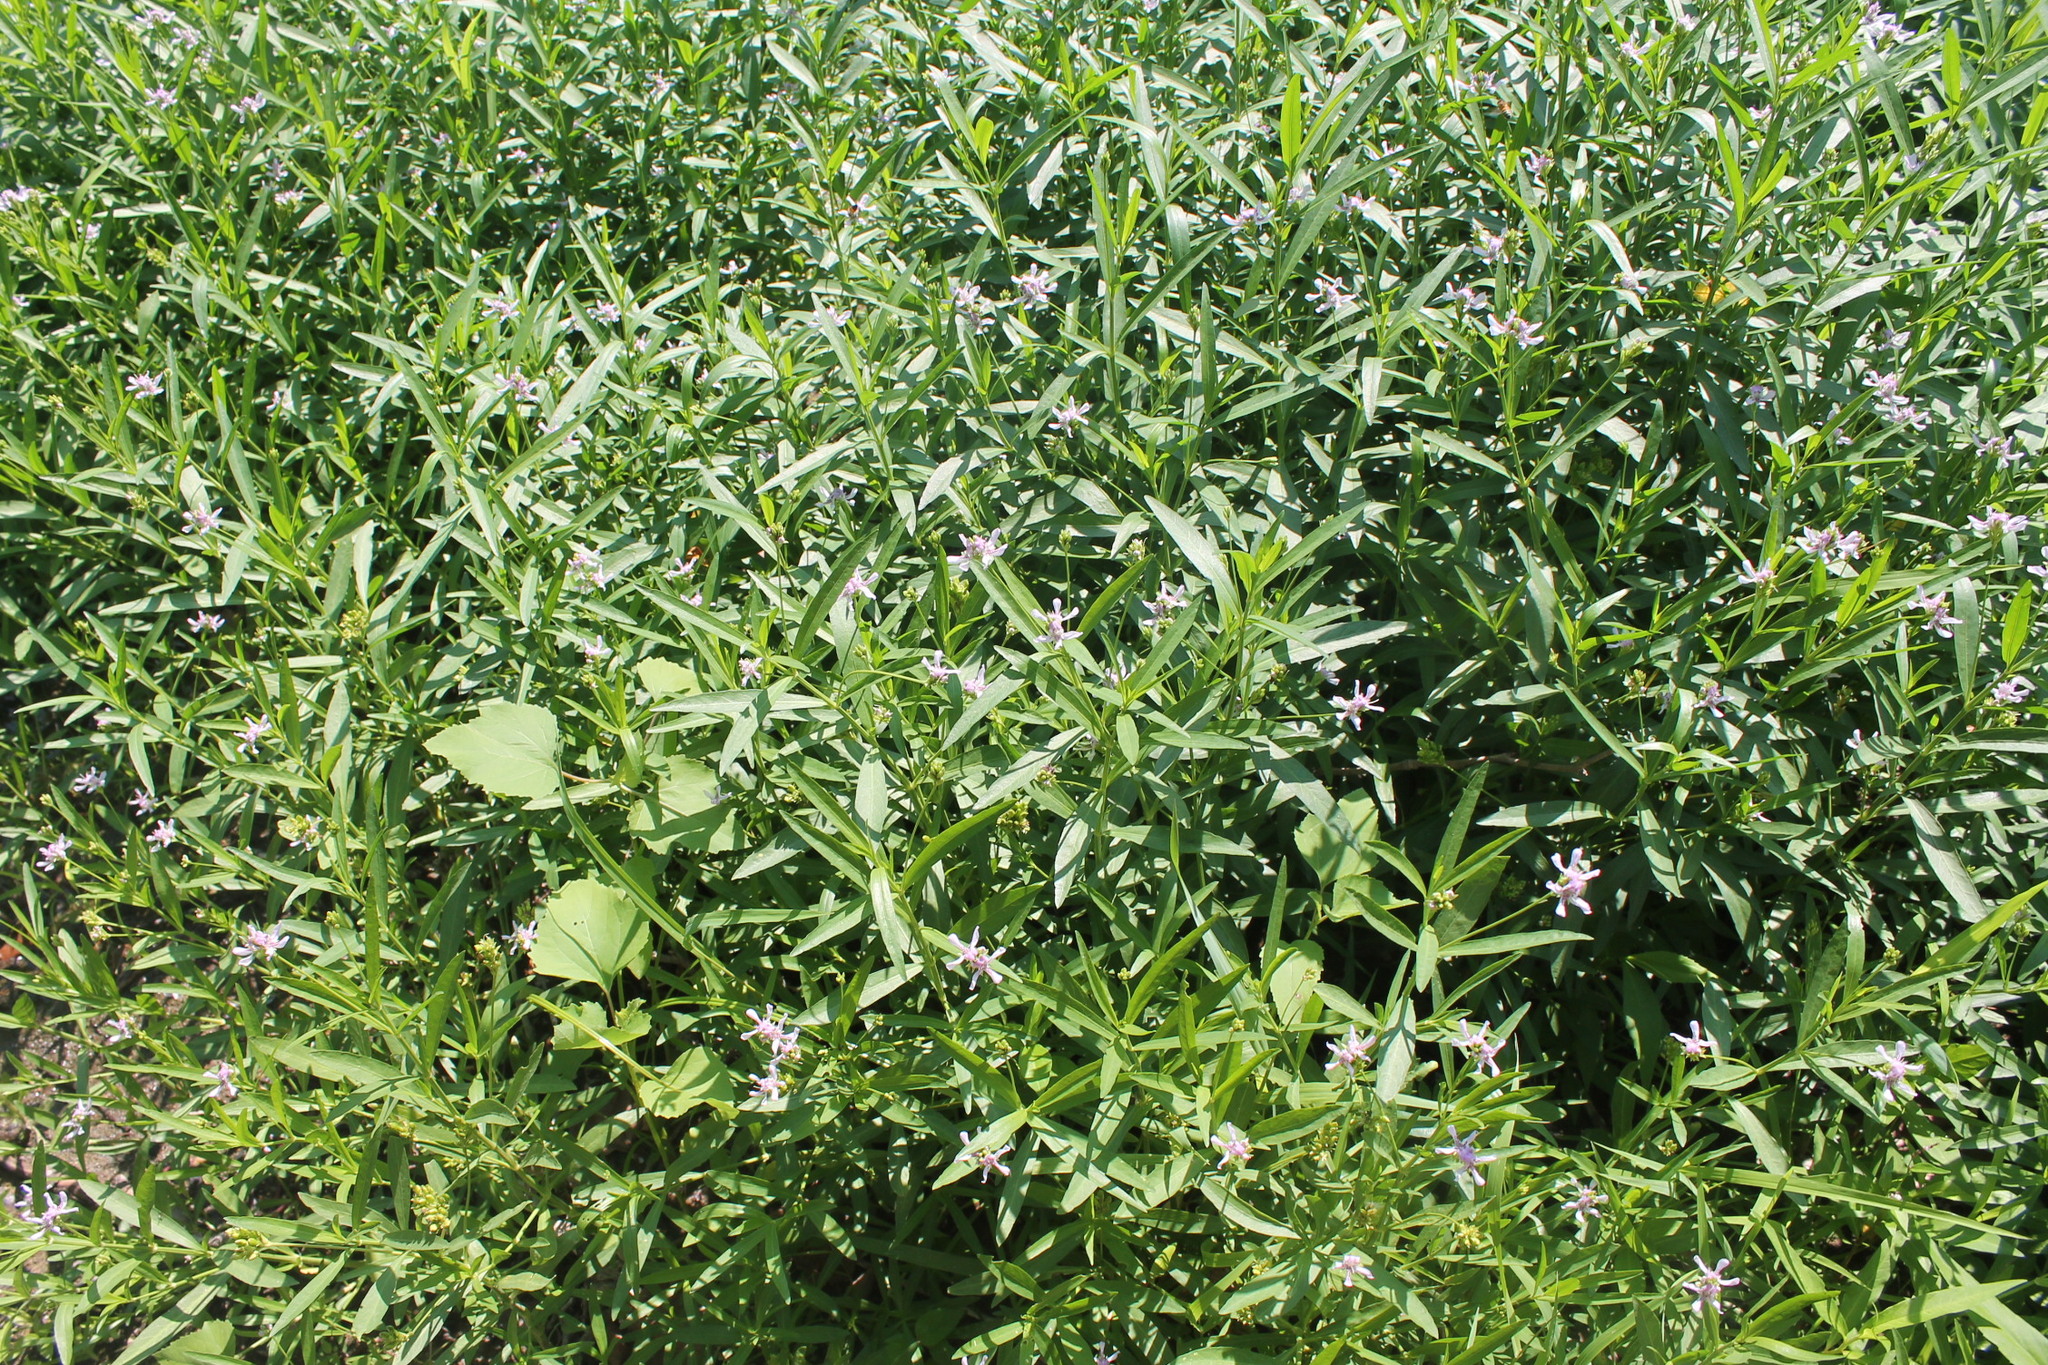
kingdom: Plantae
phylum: Tracheophyta
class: Magnoliopsida
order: Lamiales
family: Acanthaceae
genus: Dianthera
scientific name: Dianthera americana
